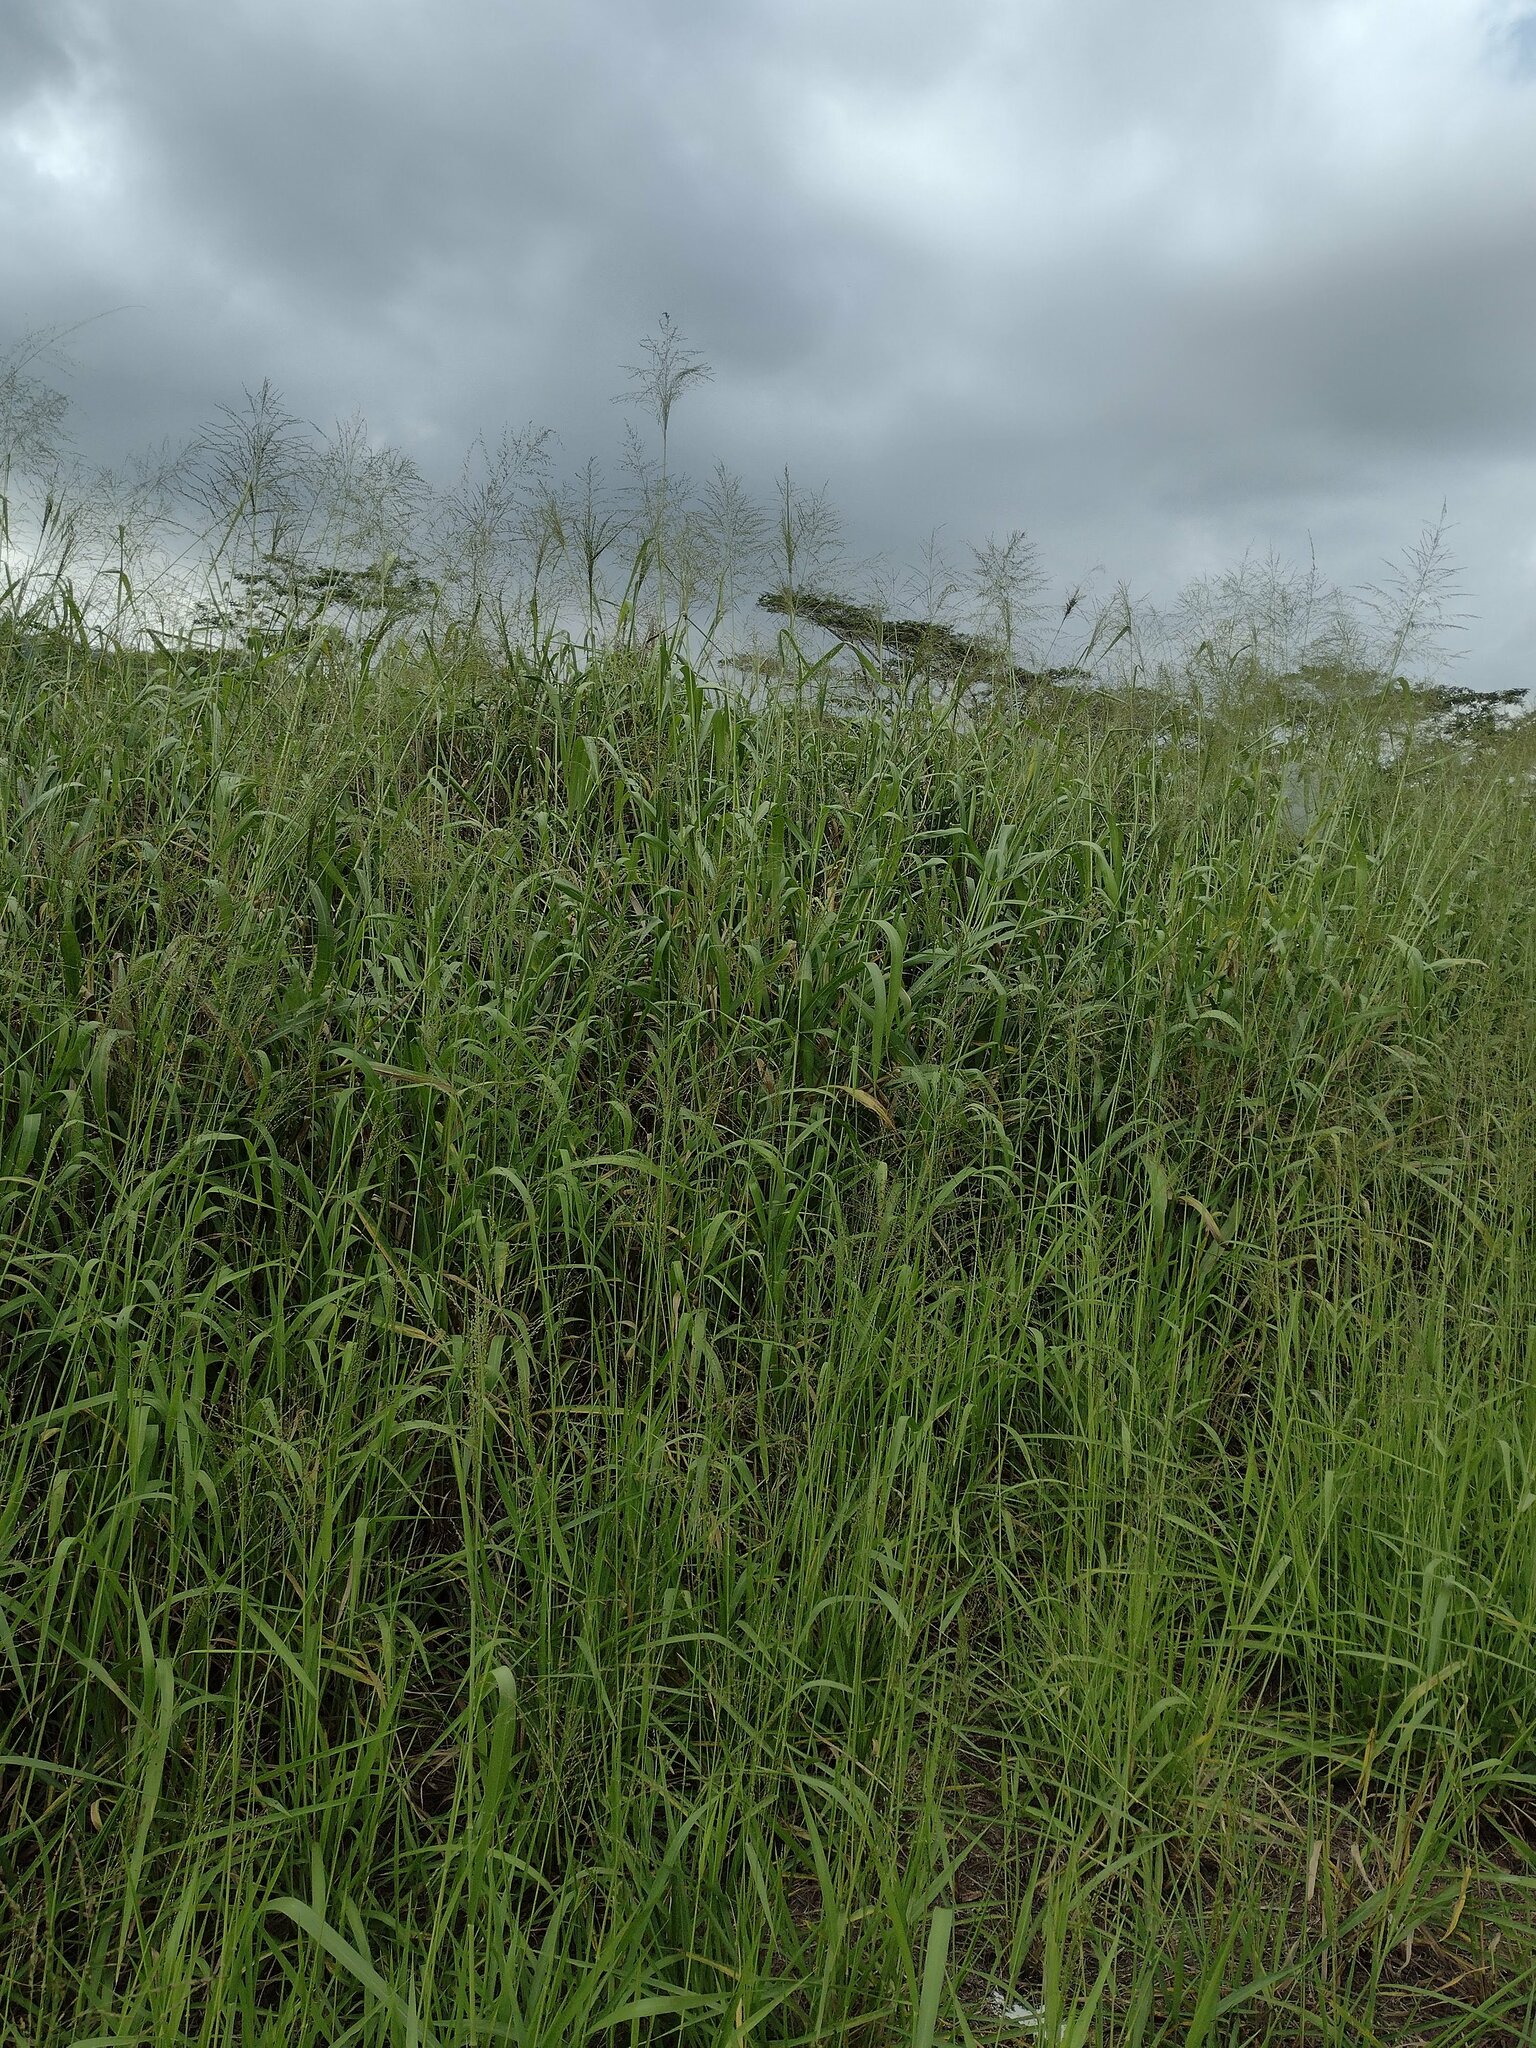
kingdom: Plantae
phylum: Tracheophyta
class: Liliopsida
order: Poales
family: Poaceae
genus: Megathyrsus
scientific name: Megathyrsus maximus
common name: Guineagrass
